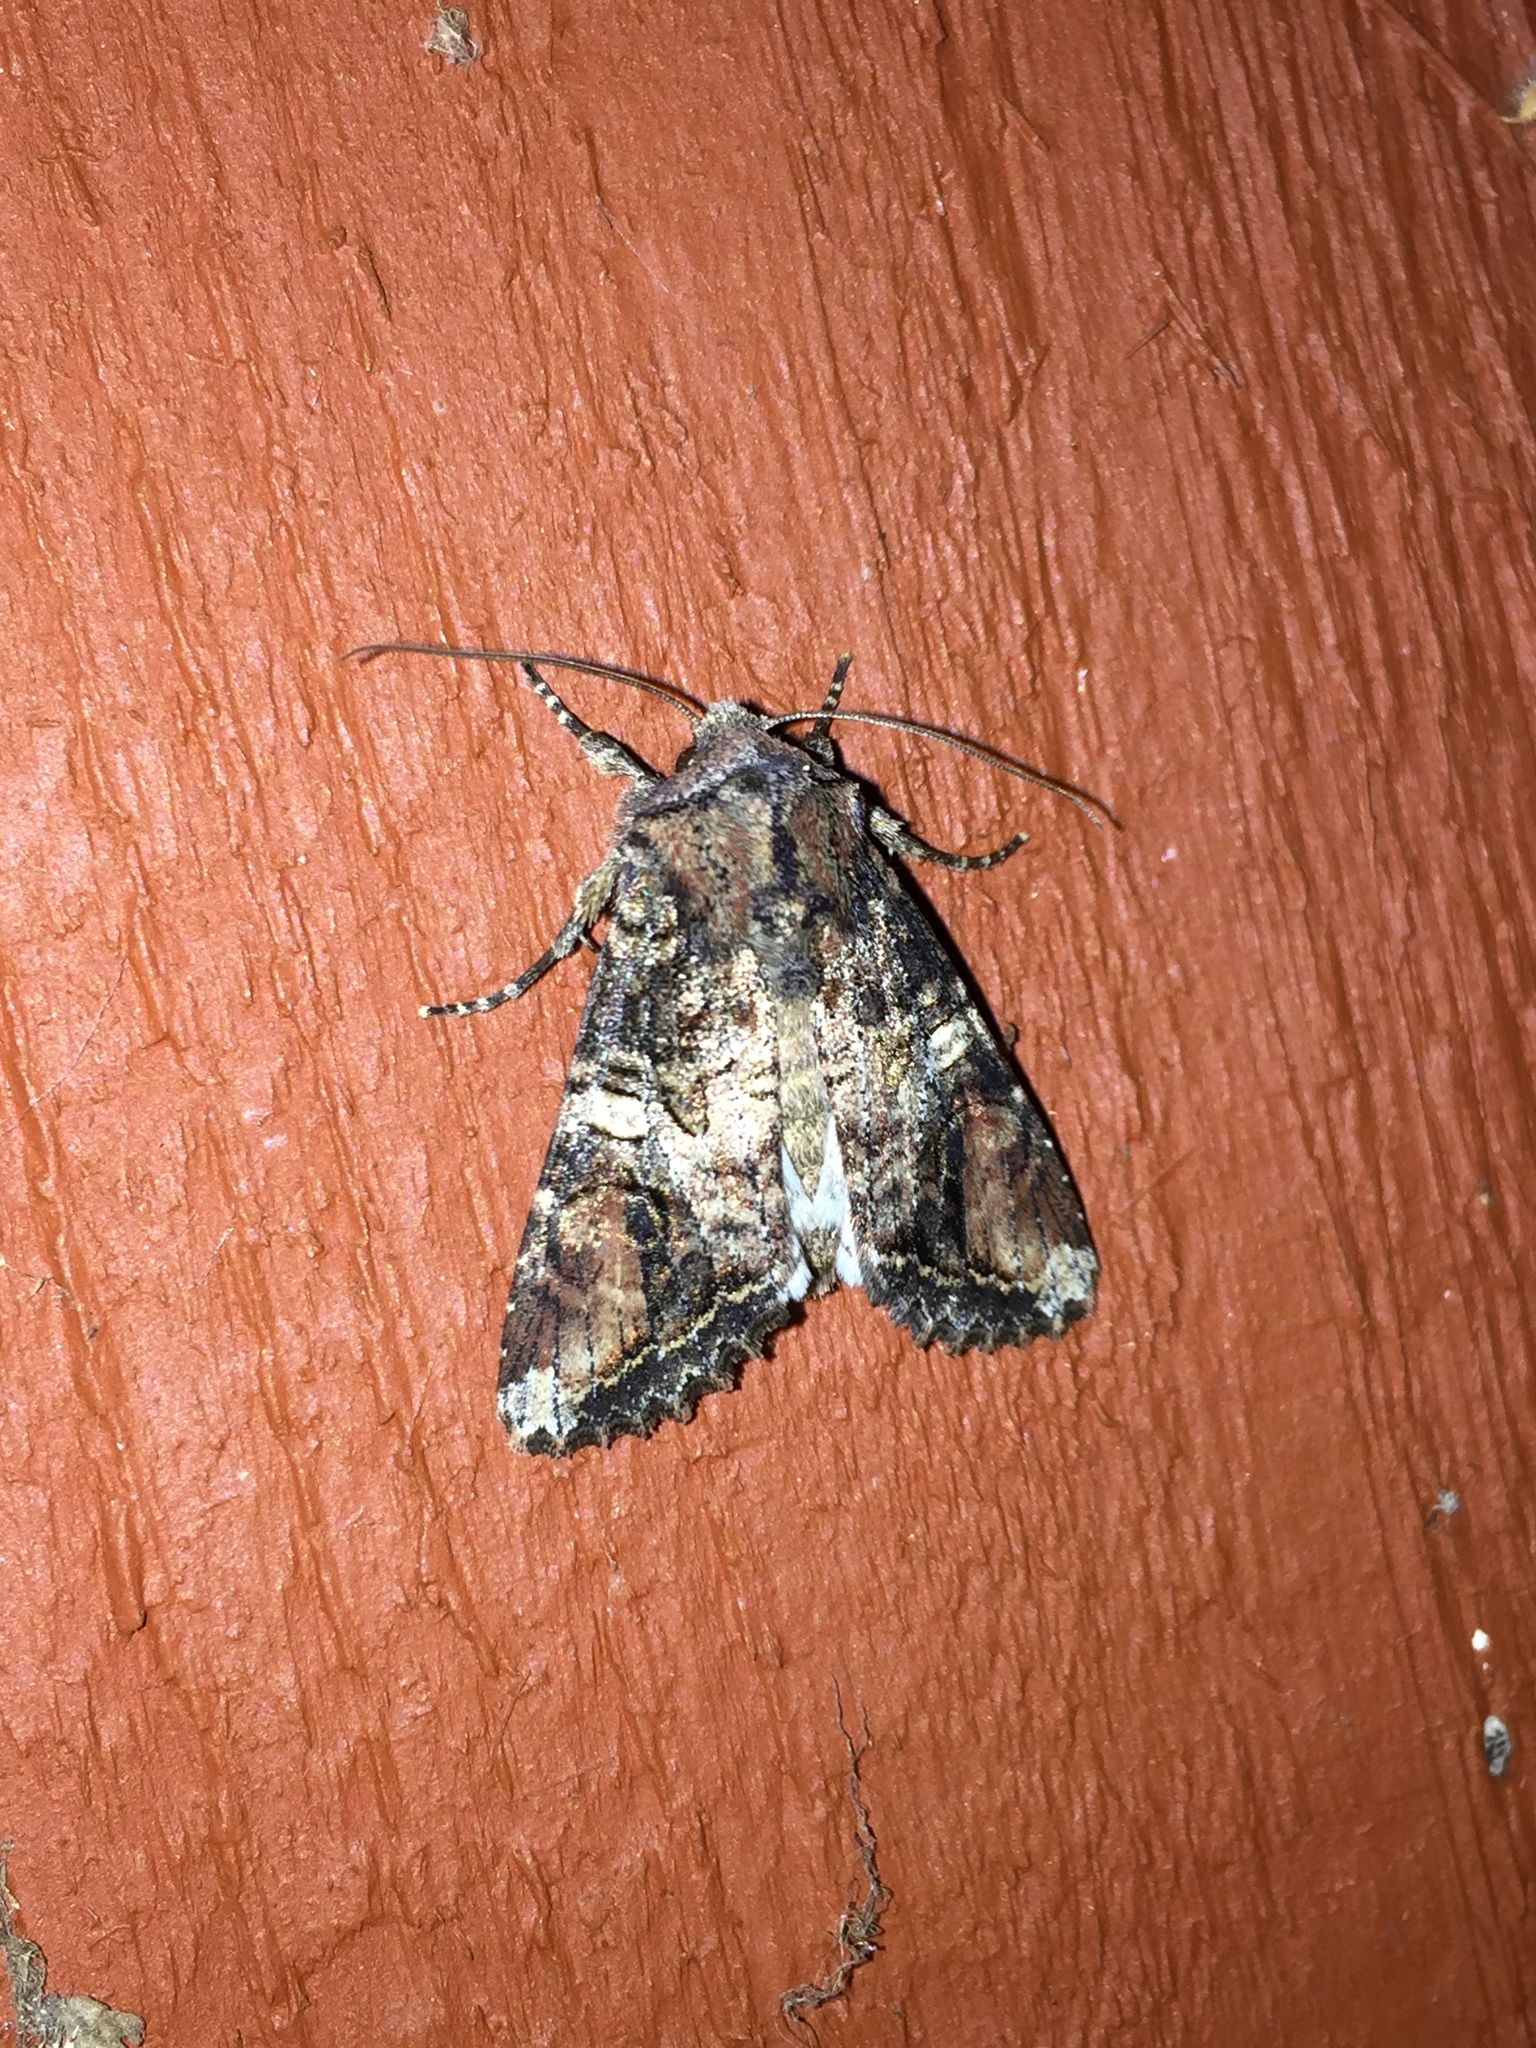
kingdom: Animalia
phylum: Arthropoda
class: Insecta
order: Lepidoptera
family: Noctuidae
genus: Egira
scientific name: Egira perlubens
